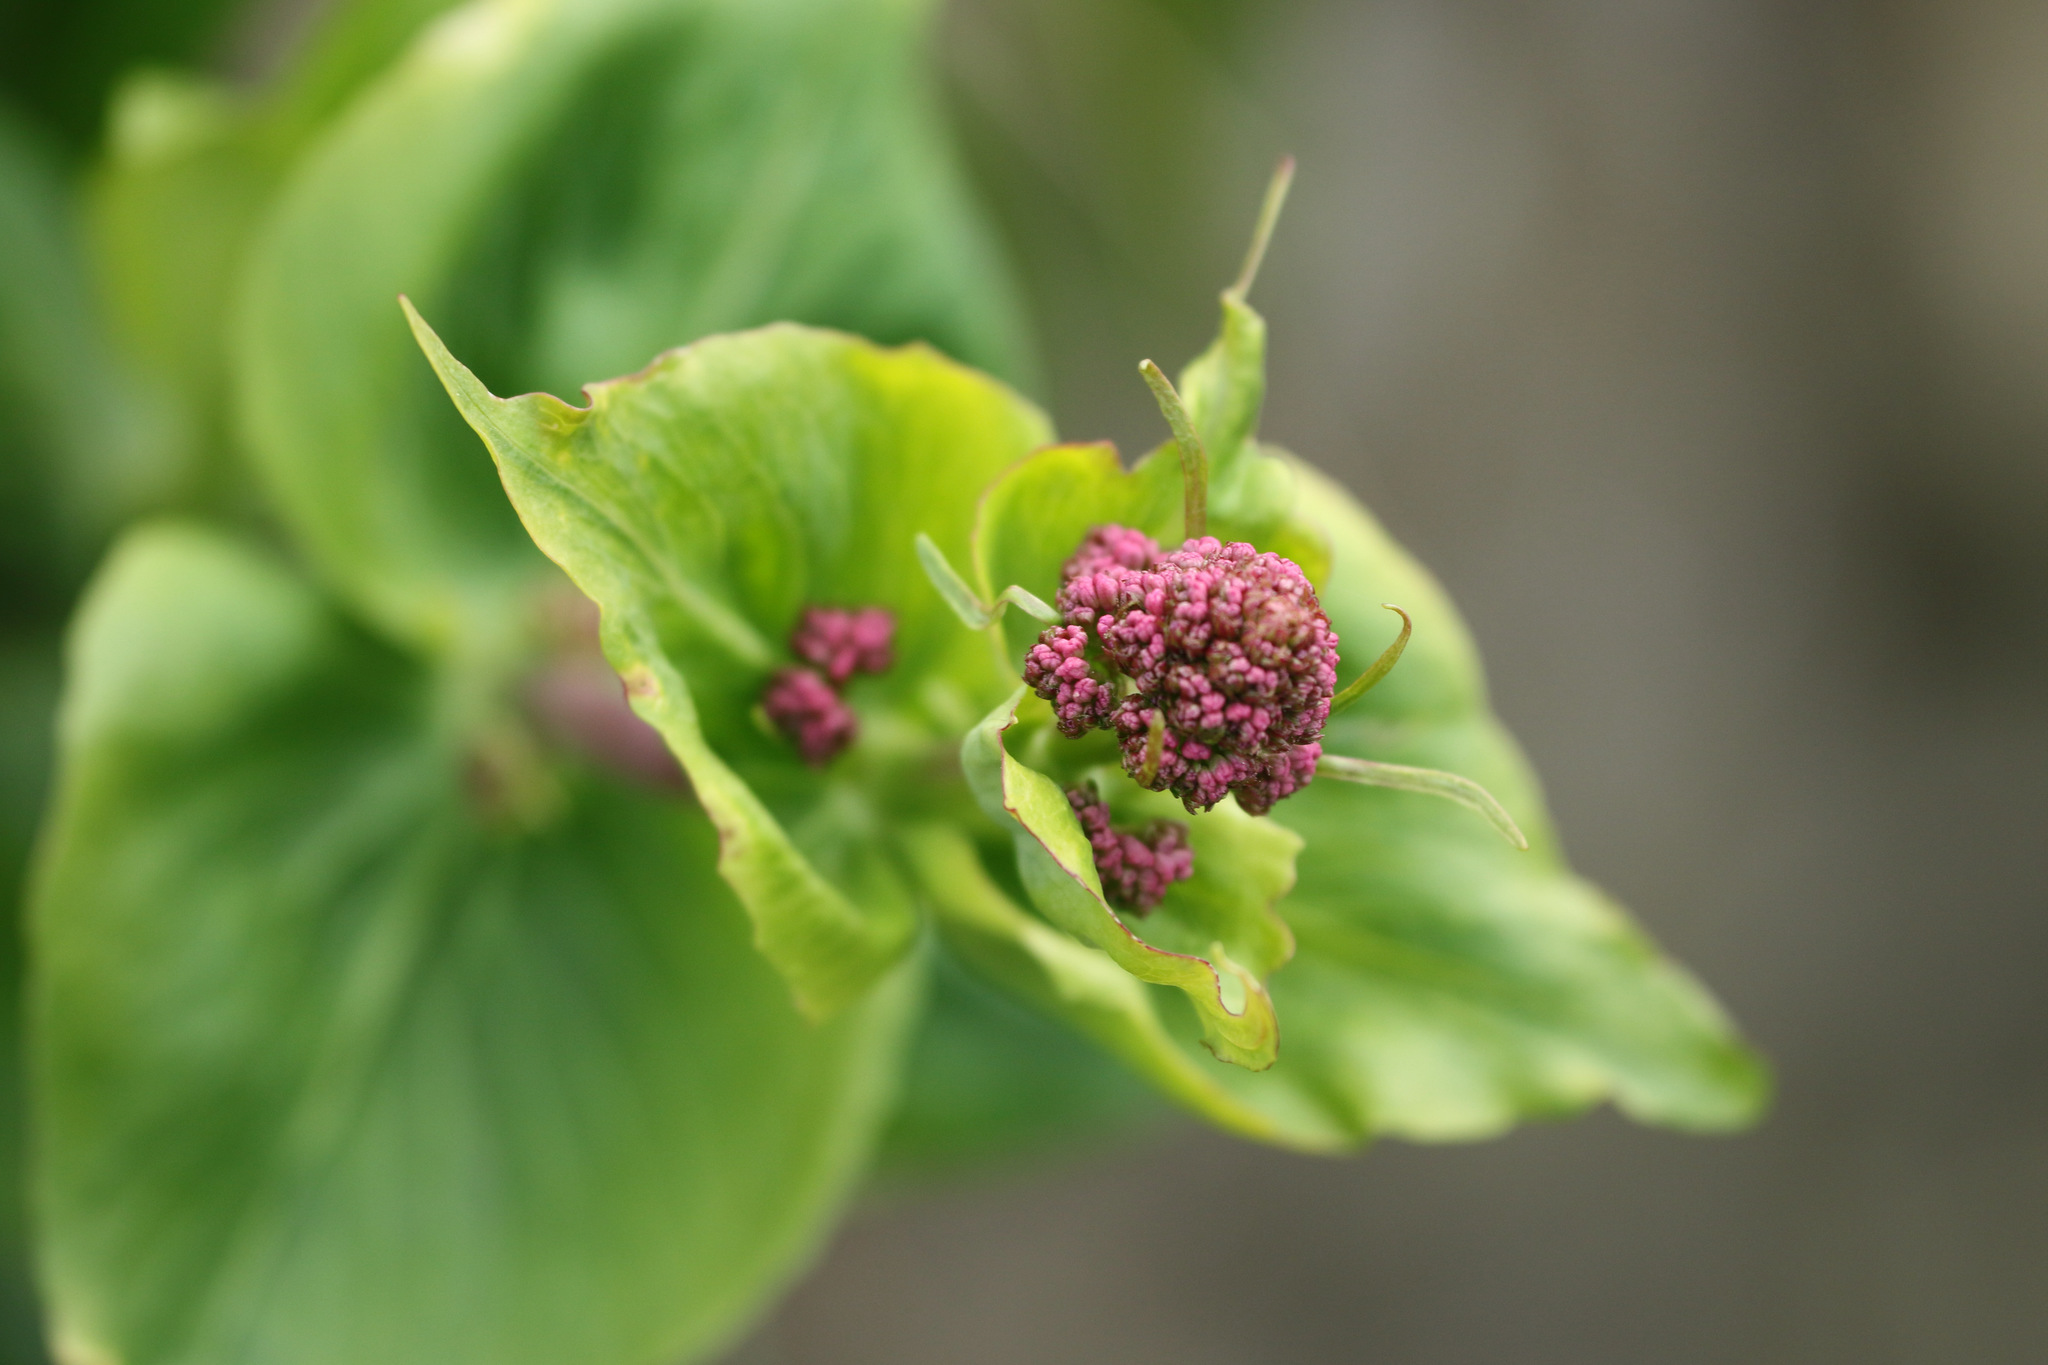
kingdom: Plantae
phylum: Tracheophyta
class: Magnoliopsida
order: Dipsacales
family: Caprifoliaceae
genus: Centranthus
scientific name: Centranthus ruber
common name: Red valerian
